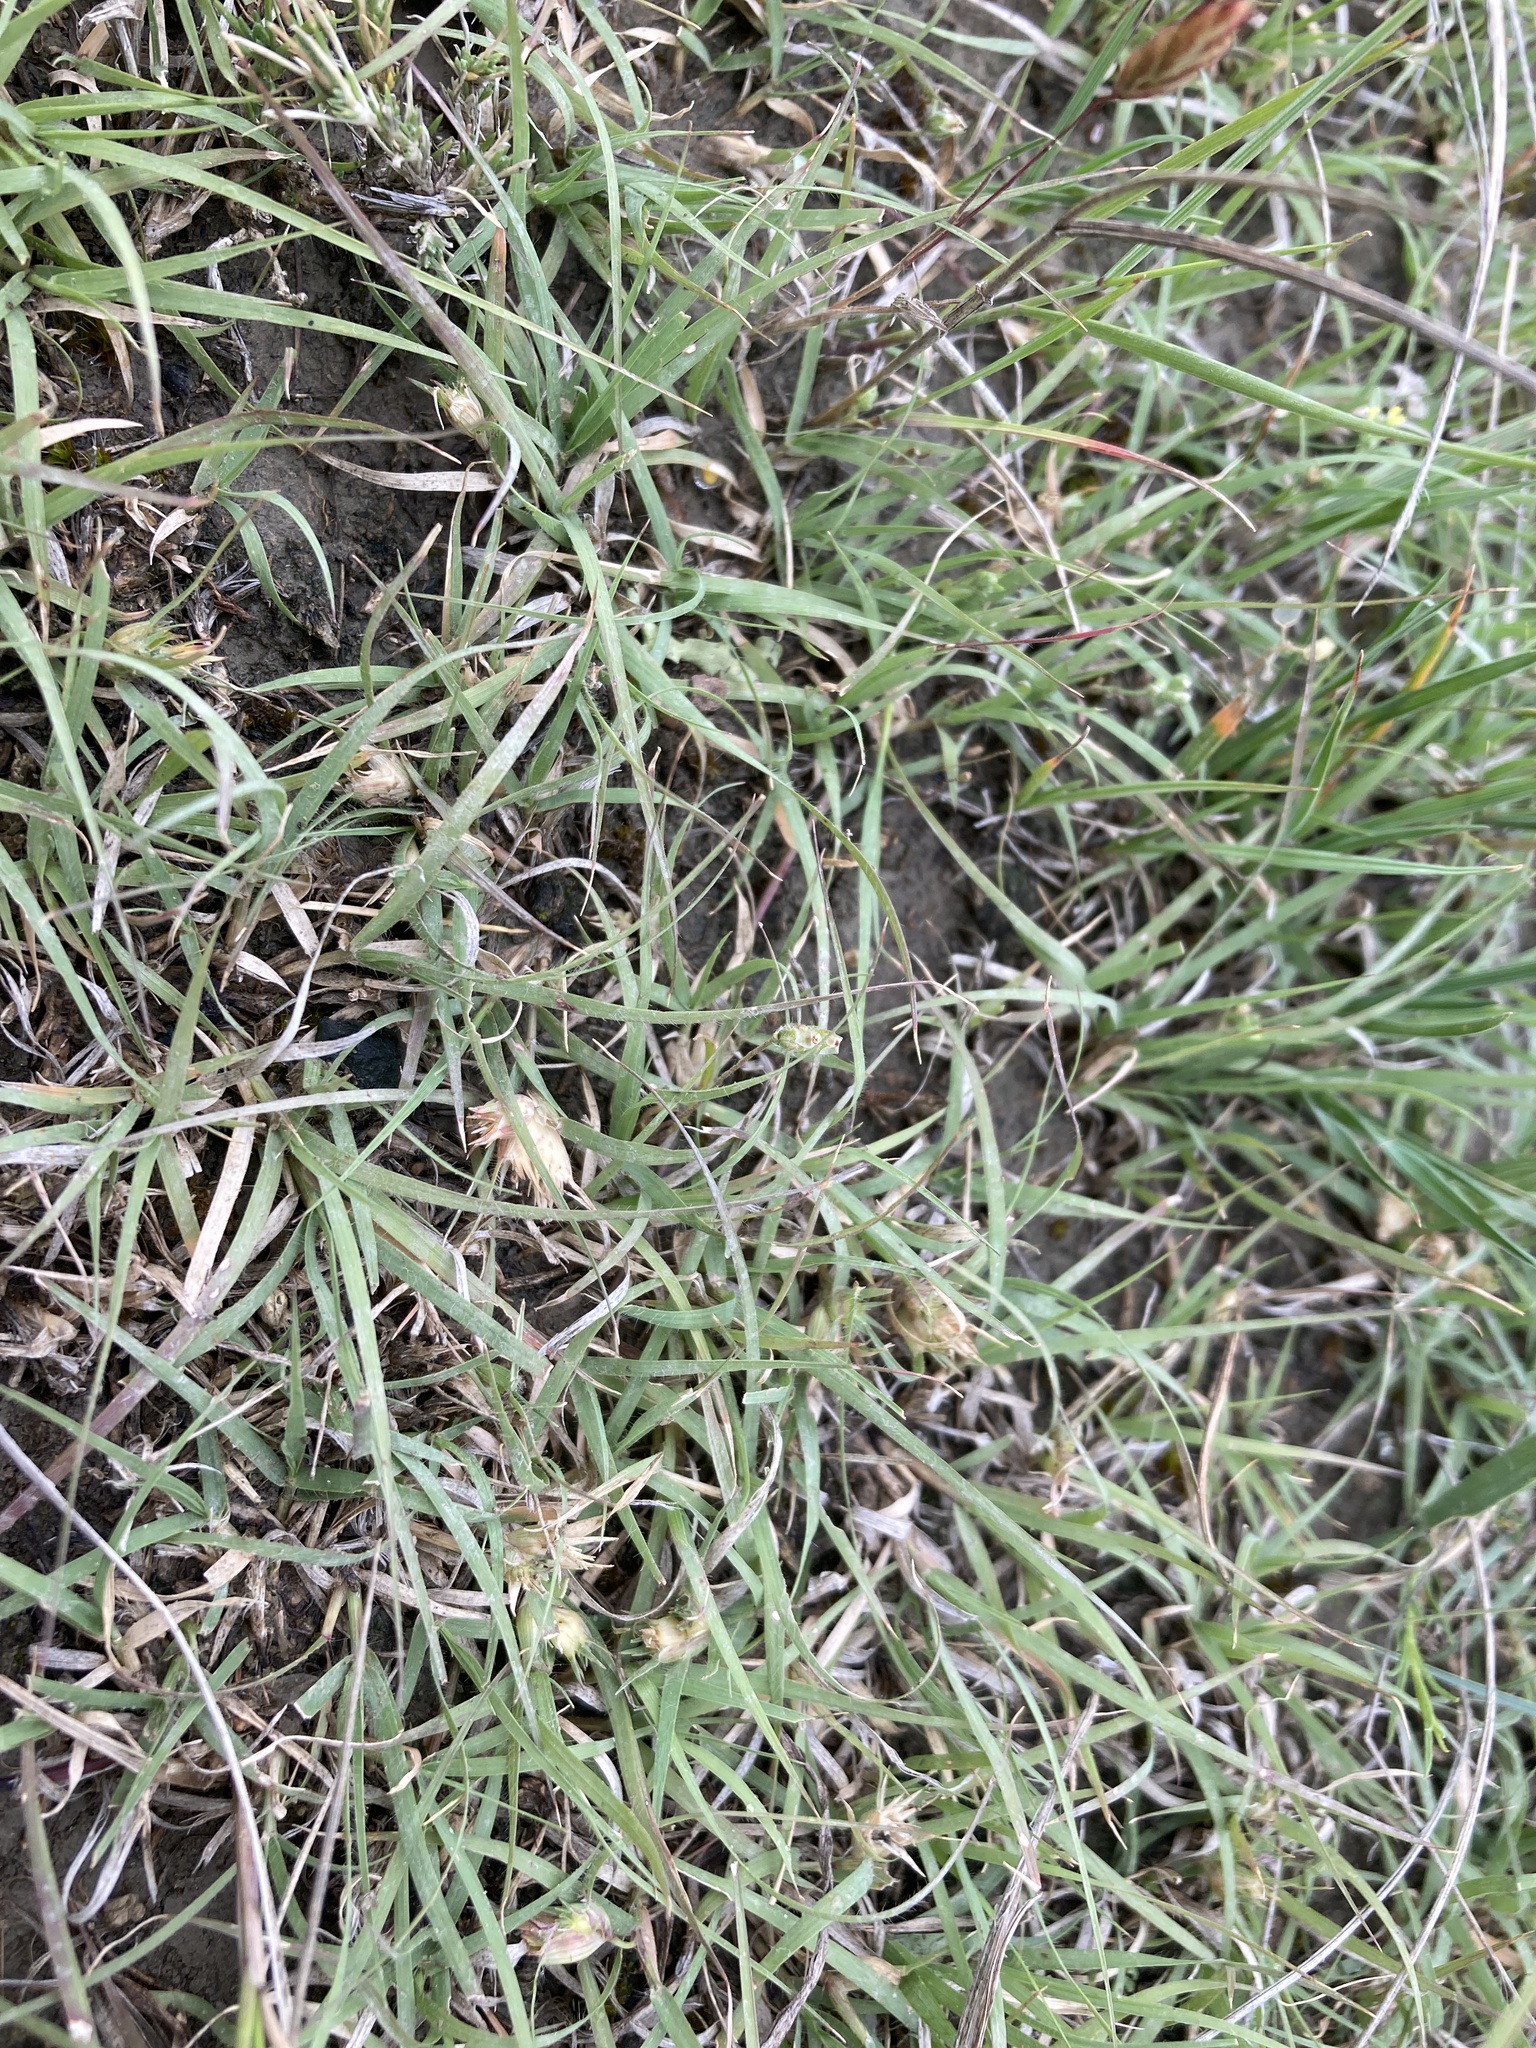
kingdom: Plantae
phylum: Tracheophyta
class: Liliopsida
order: Poales
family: Poaceae
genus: Bouteloua
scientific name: Bouteloua dactyloides
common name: Buffalo grass
